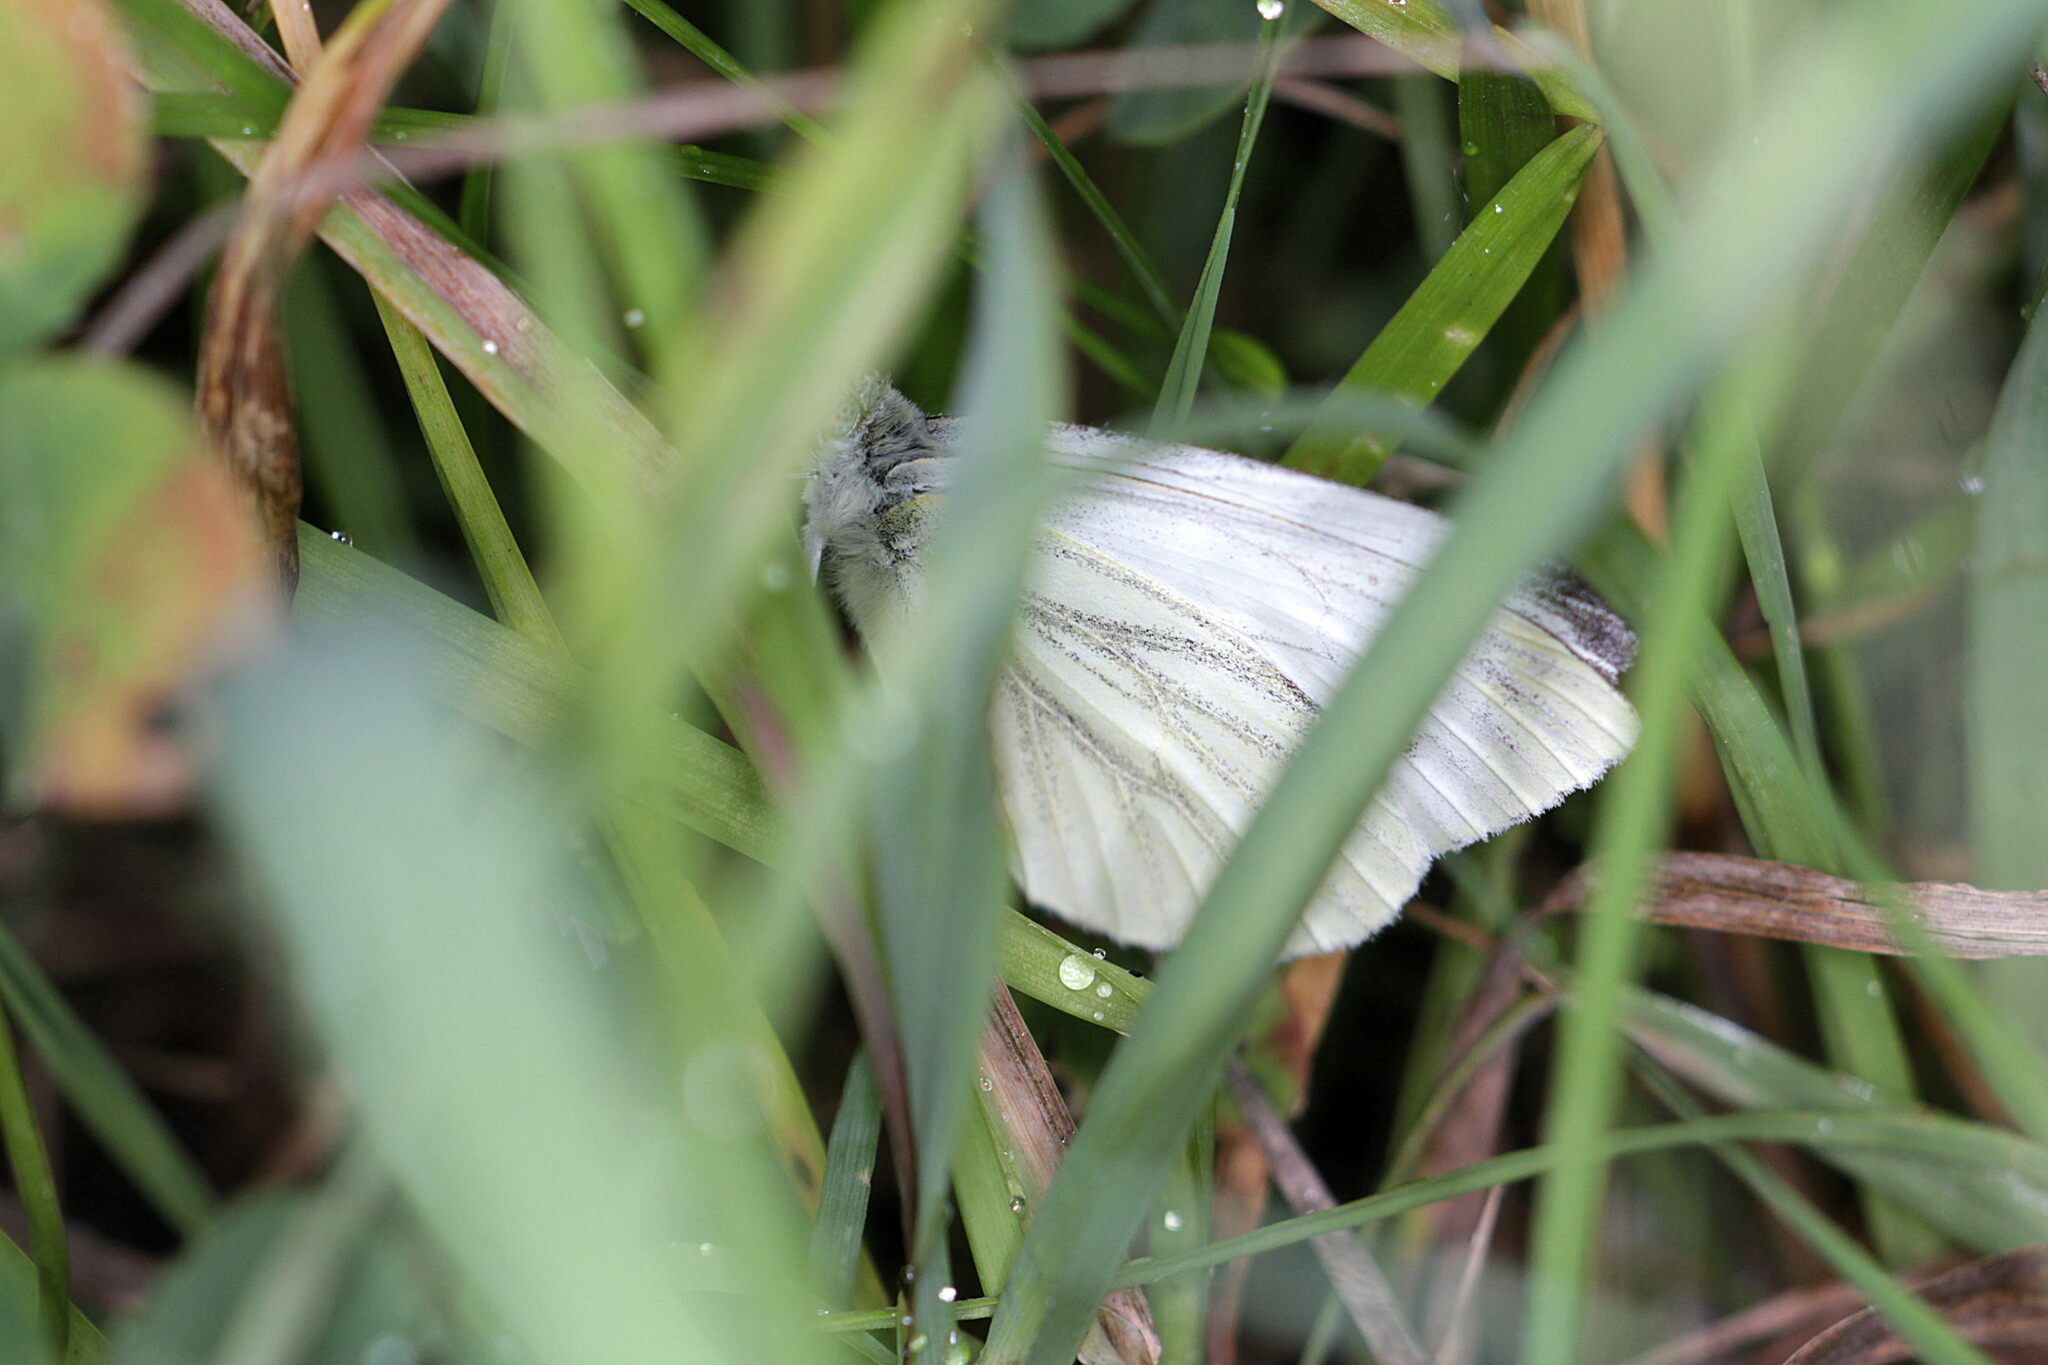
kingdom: Animalia
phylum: Arthropoda
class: Insecta
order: Lepidoptera
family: Pieridae
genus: Pieris
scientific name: Pieris napi
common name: Green-veined white
